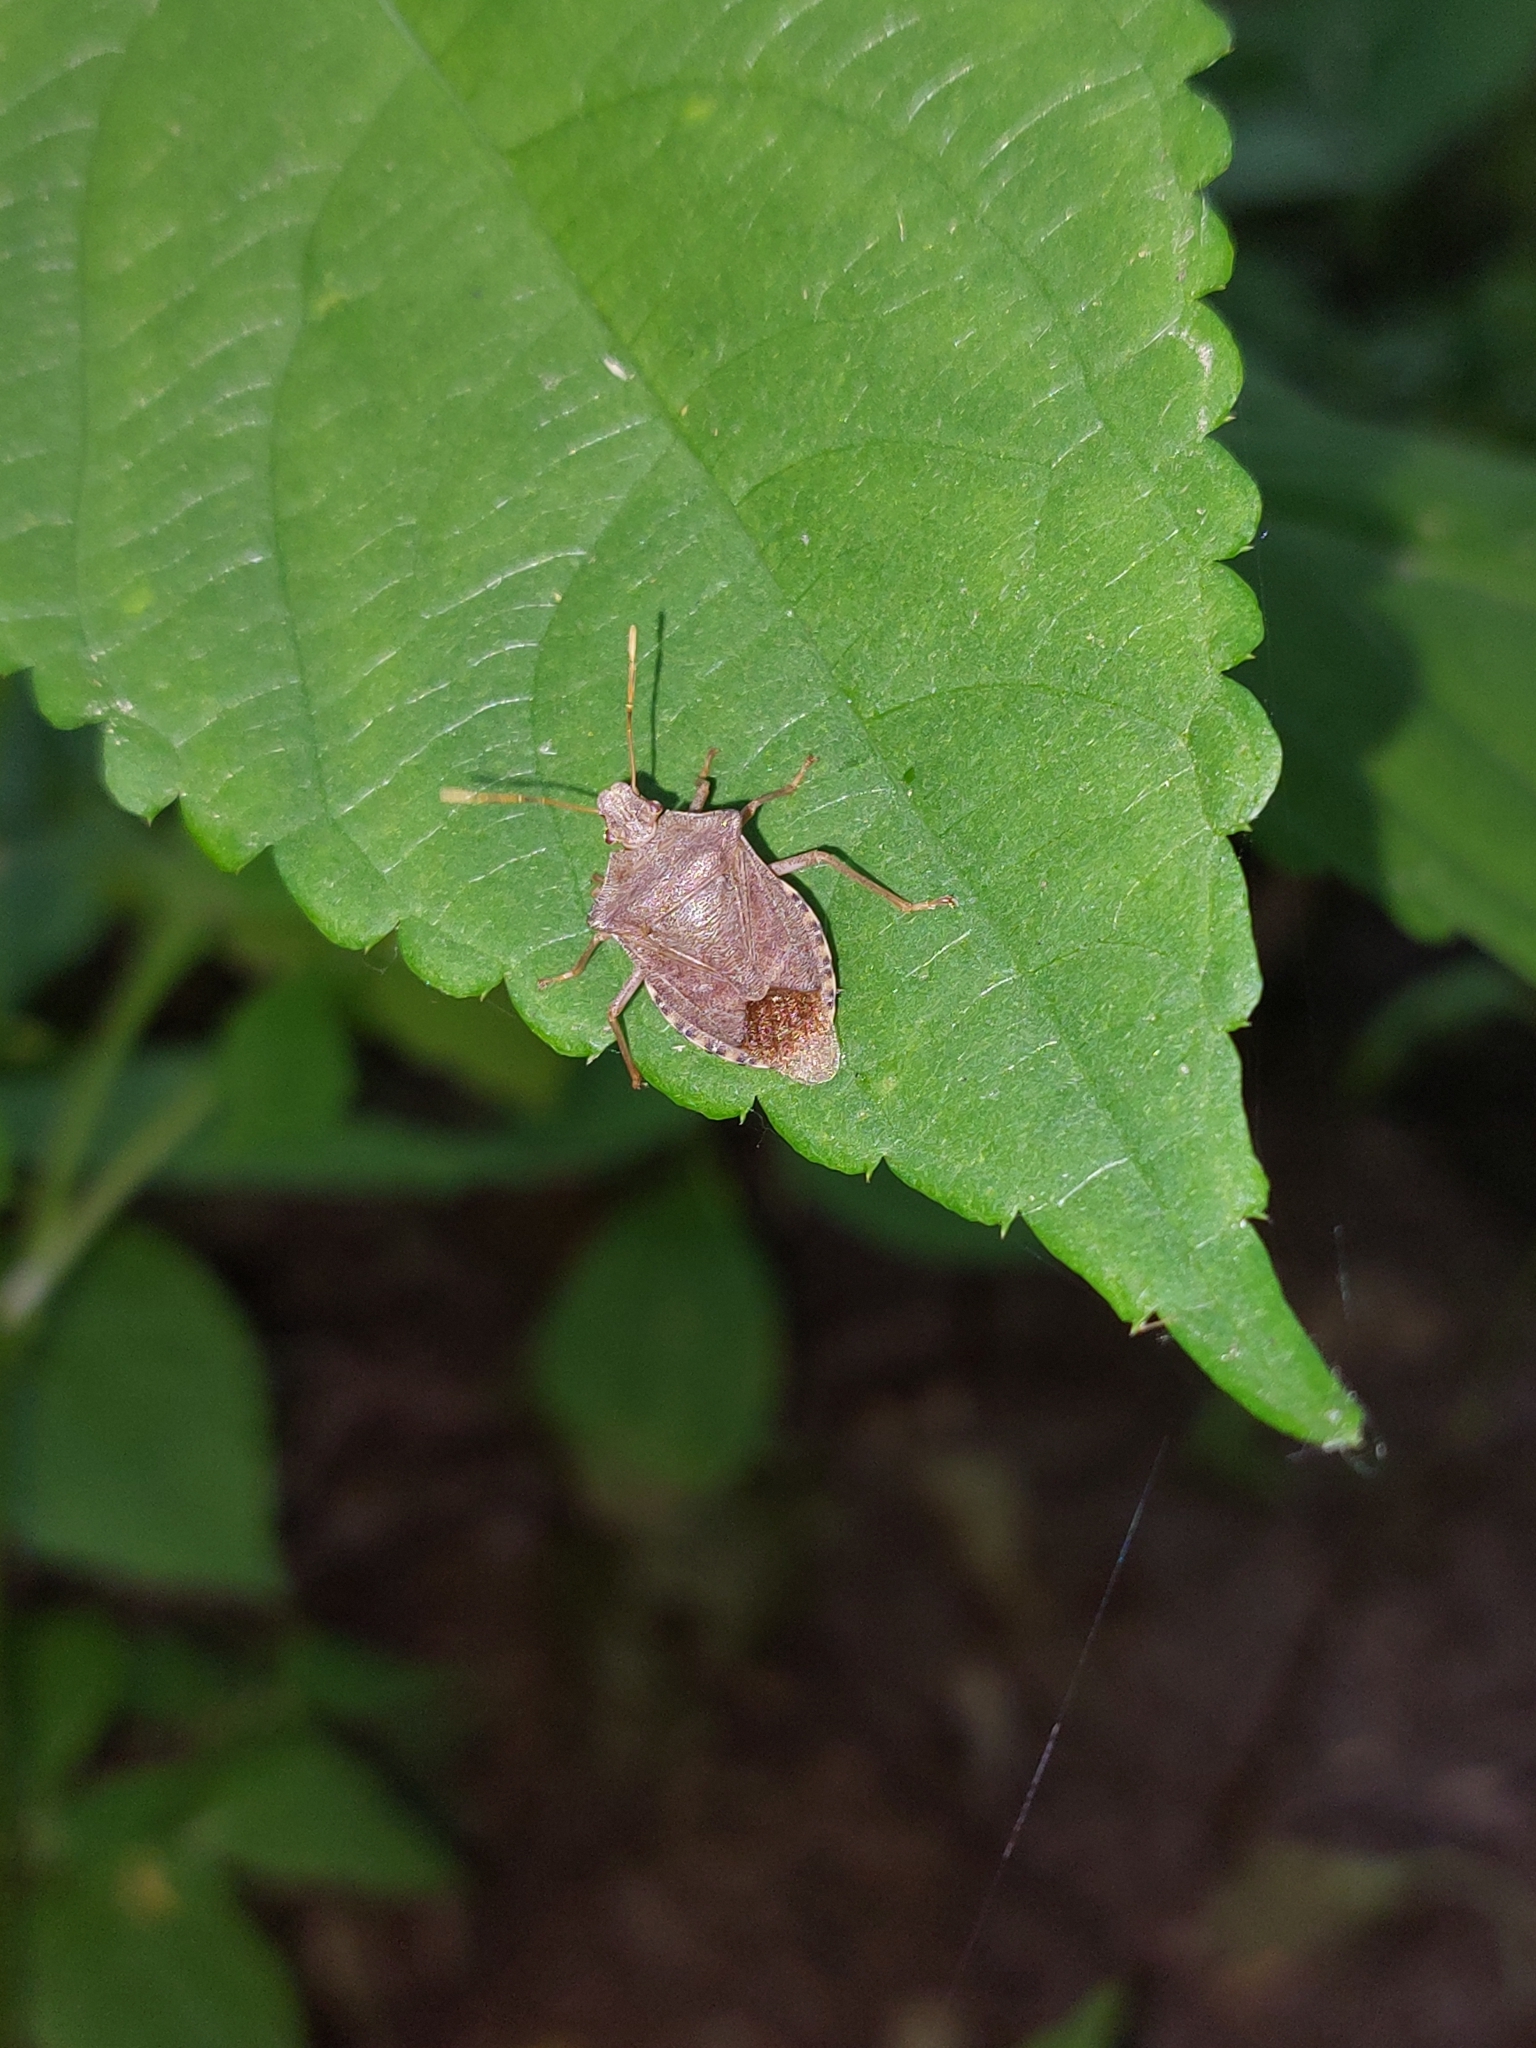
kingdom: Animalia
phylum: Arthropoda
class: Insecta
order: Hemiptera
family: Pentatomidae
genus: Arma
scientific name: Arma custos
